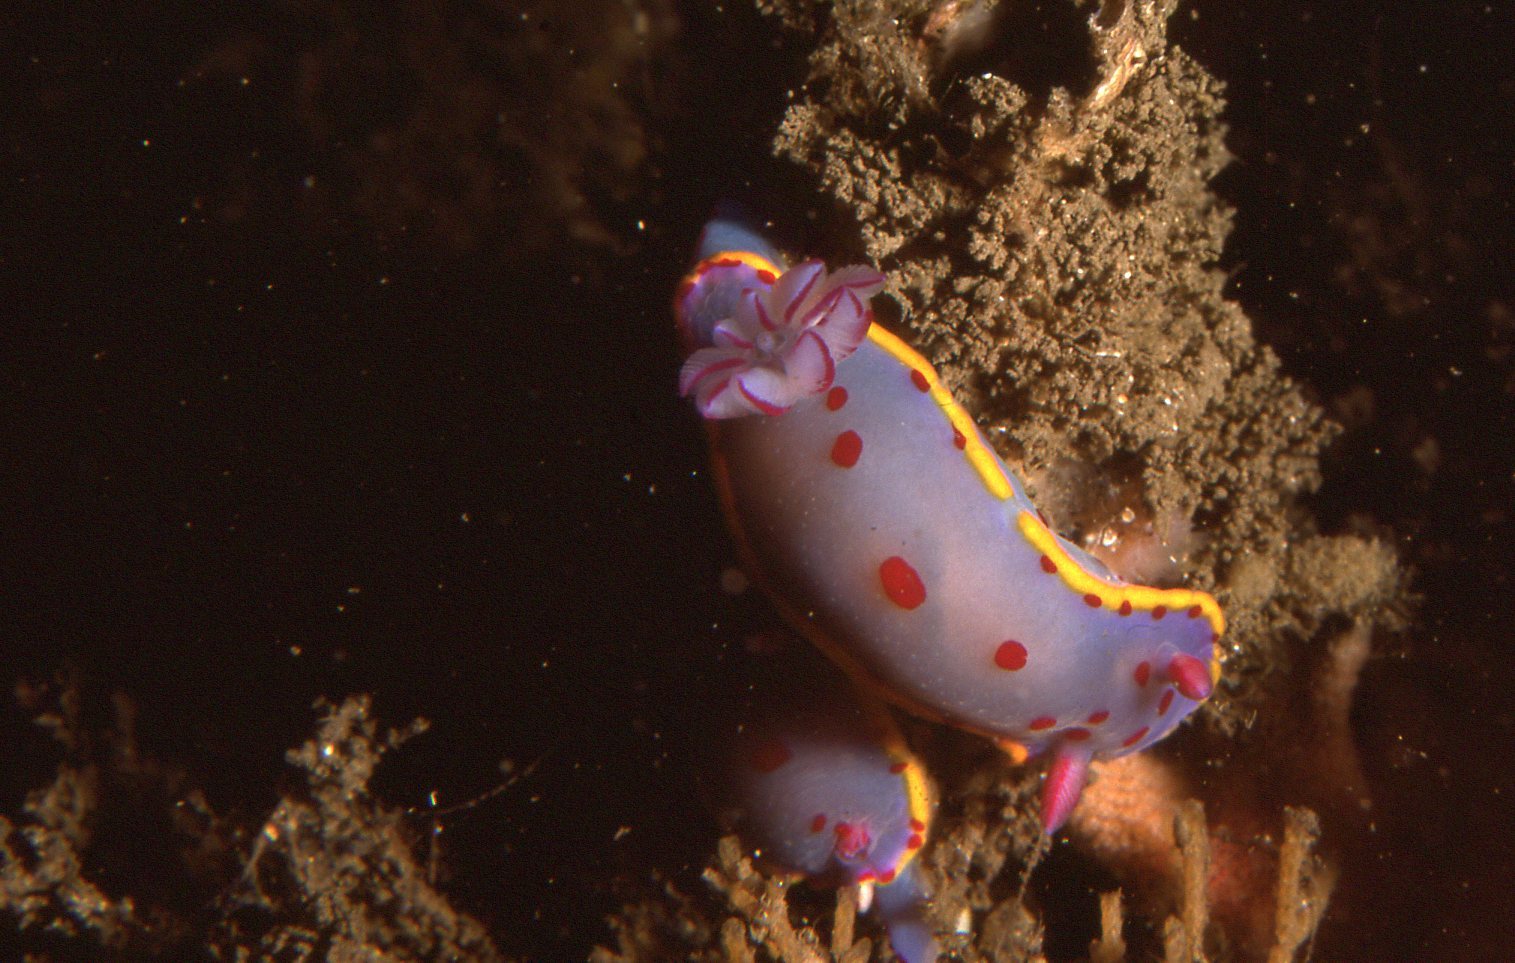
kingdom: Animalia
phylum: Mollusca
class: Gastropoda
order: Nudibranchia
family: Chromodorididae
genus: Hypselodoris
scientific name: Hypselodoris bennetti
